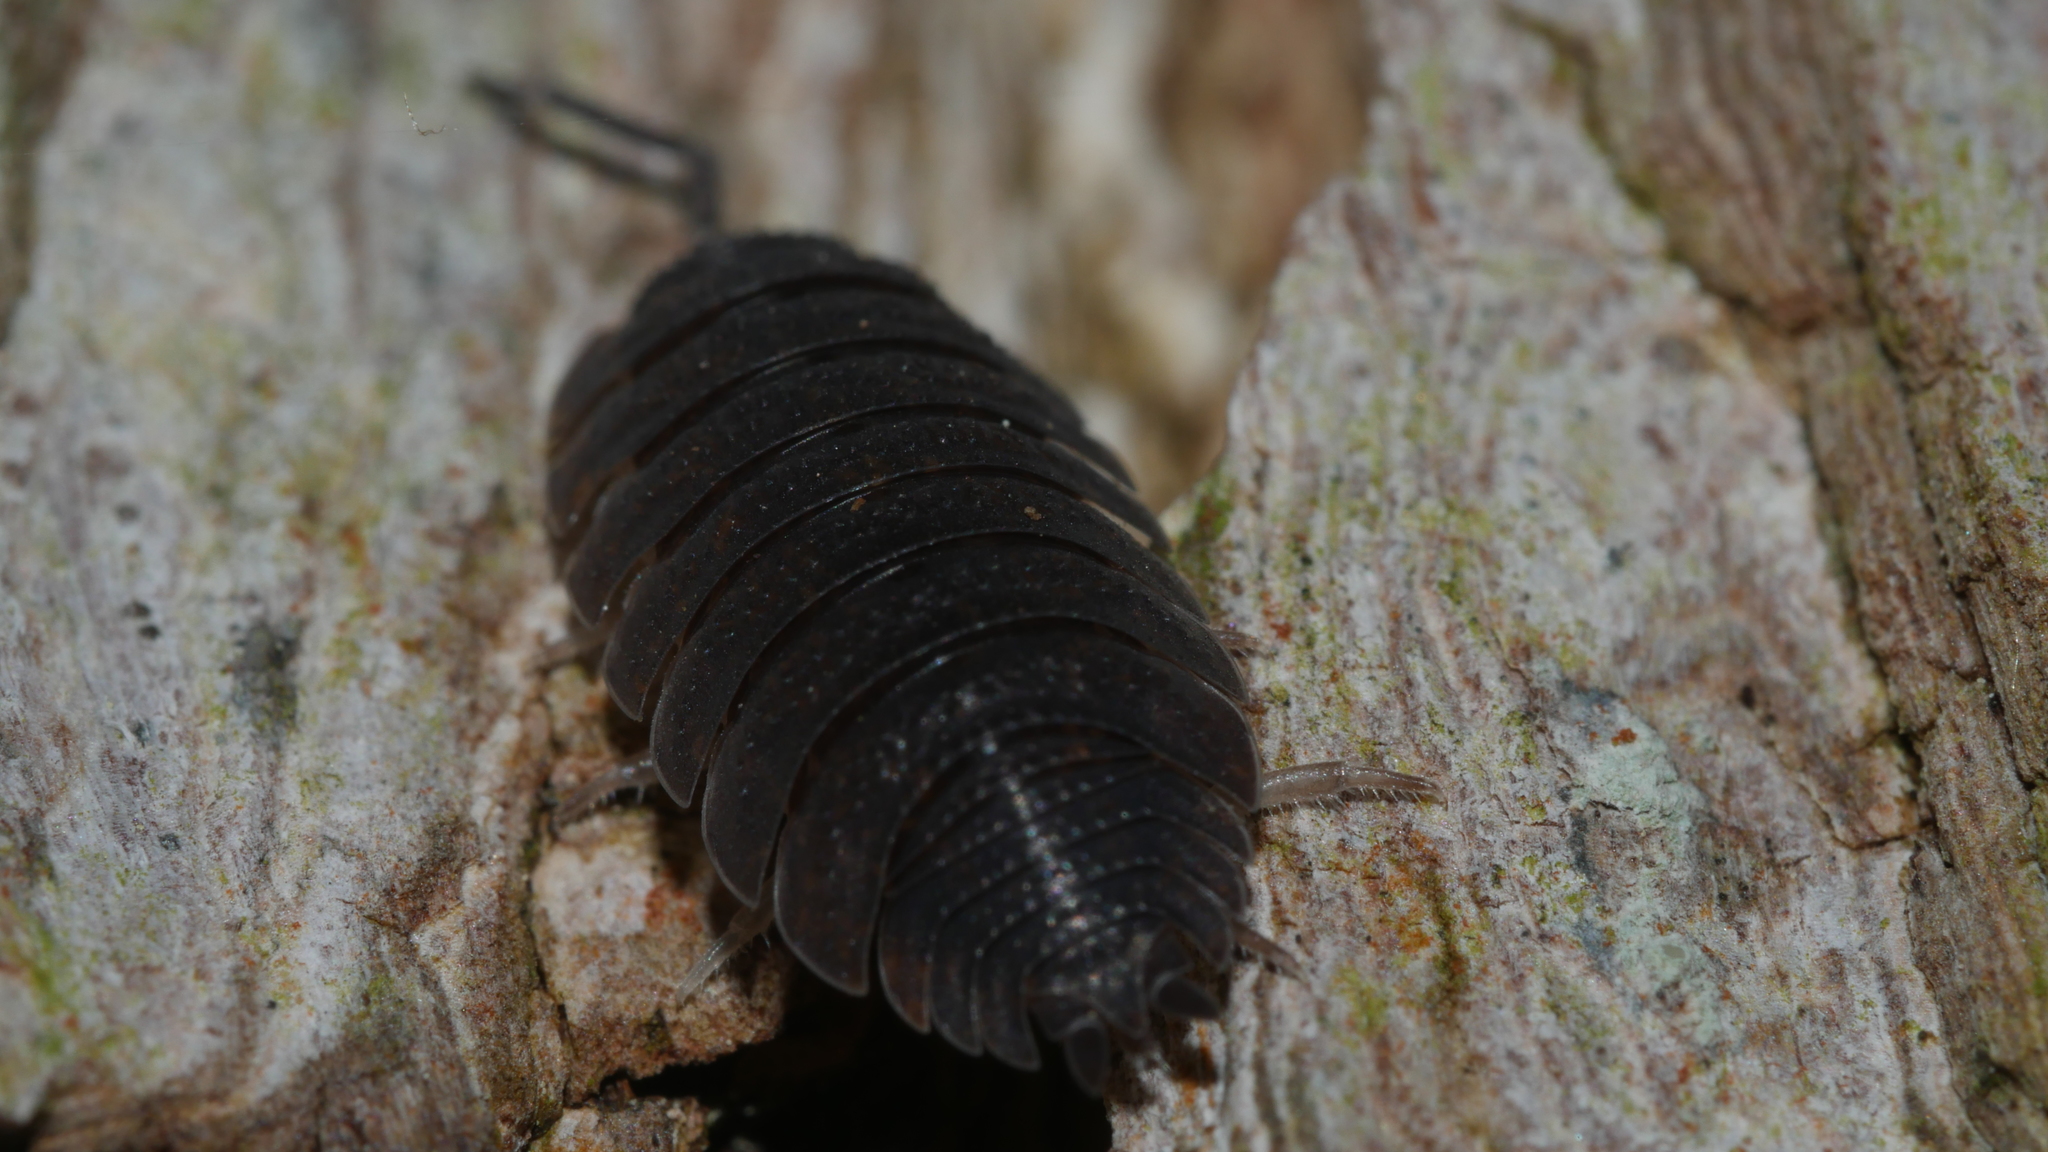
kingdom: Animalia
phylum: Arthropoda
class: Malacostraca
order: Isopoda
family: Porcellionidae
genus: Porcellio
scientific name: Porcellio scaber
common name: Common rough woodlouse
